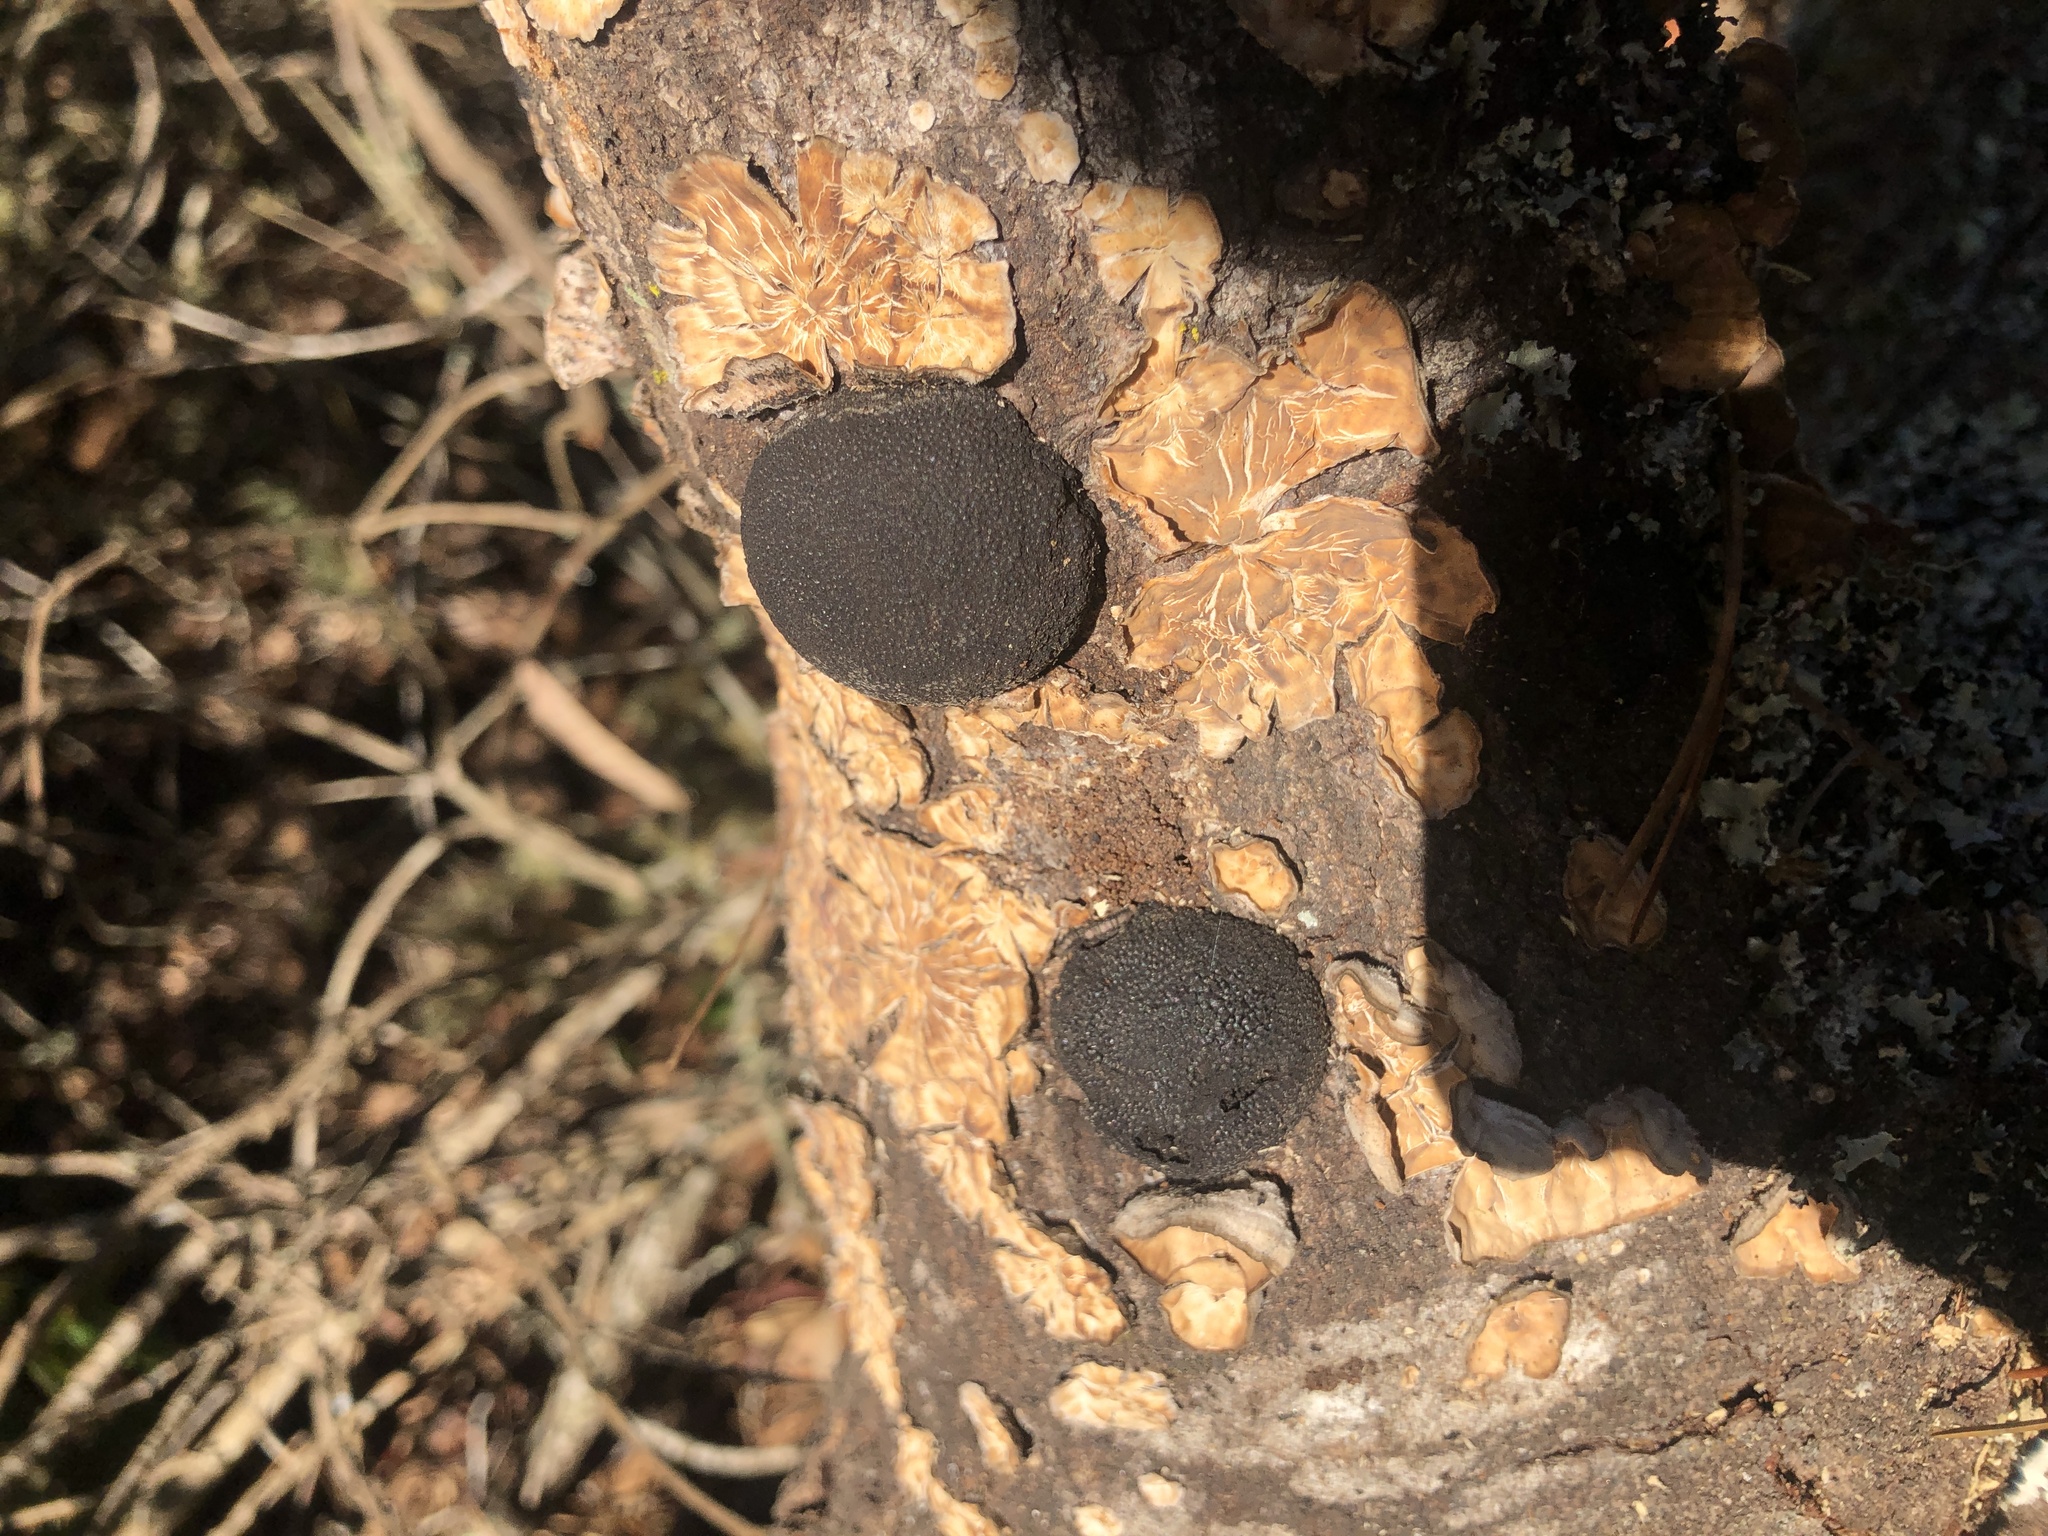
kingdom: Fungi
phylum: Ascomycota
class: Sordariomycetes
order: Xylariales
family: Hypoxylaceae
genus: Annulohypoxylon
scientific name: Annulohypoxylon thouarsianum
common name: Cramp balls
